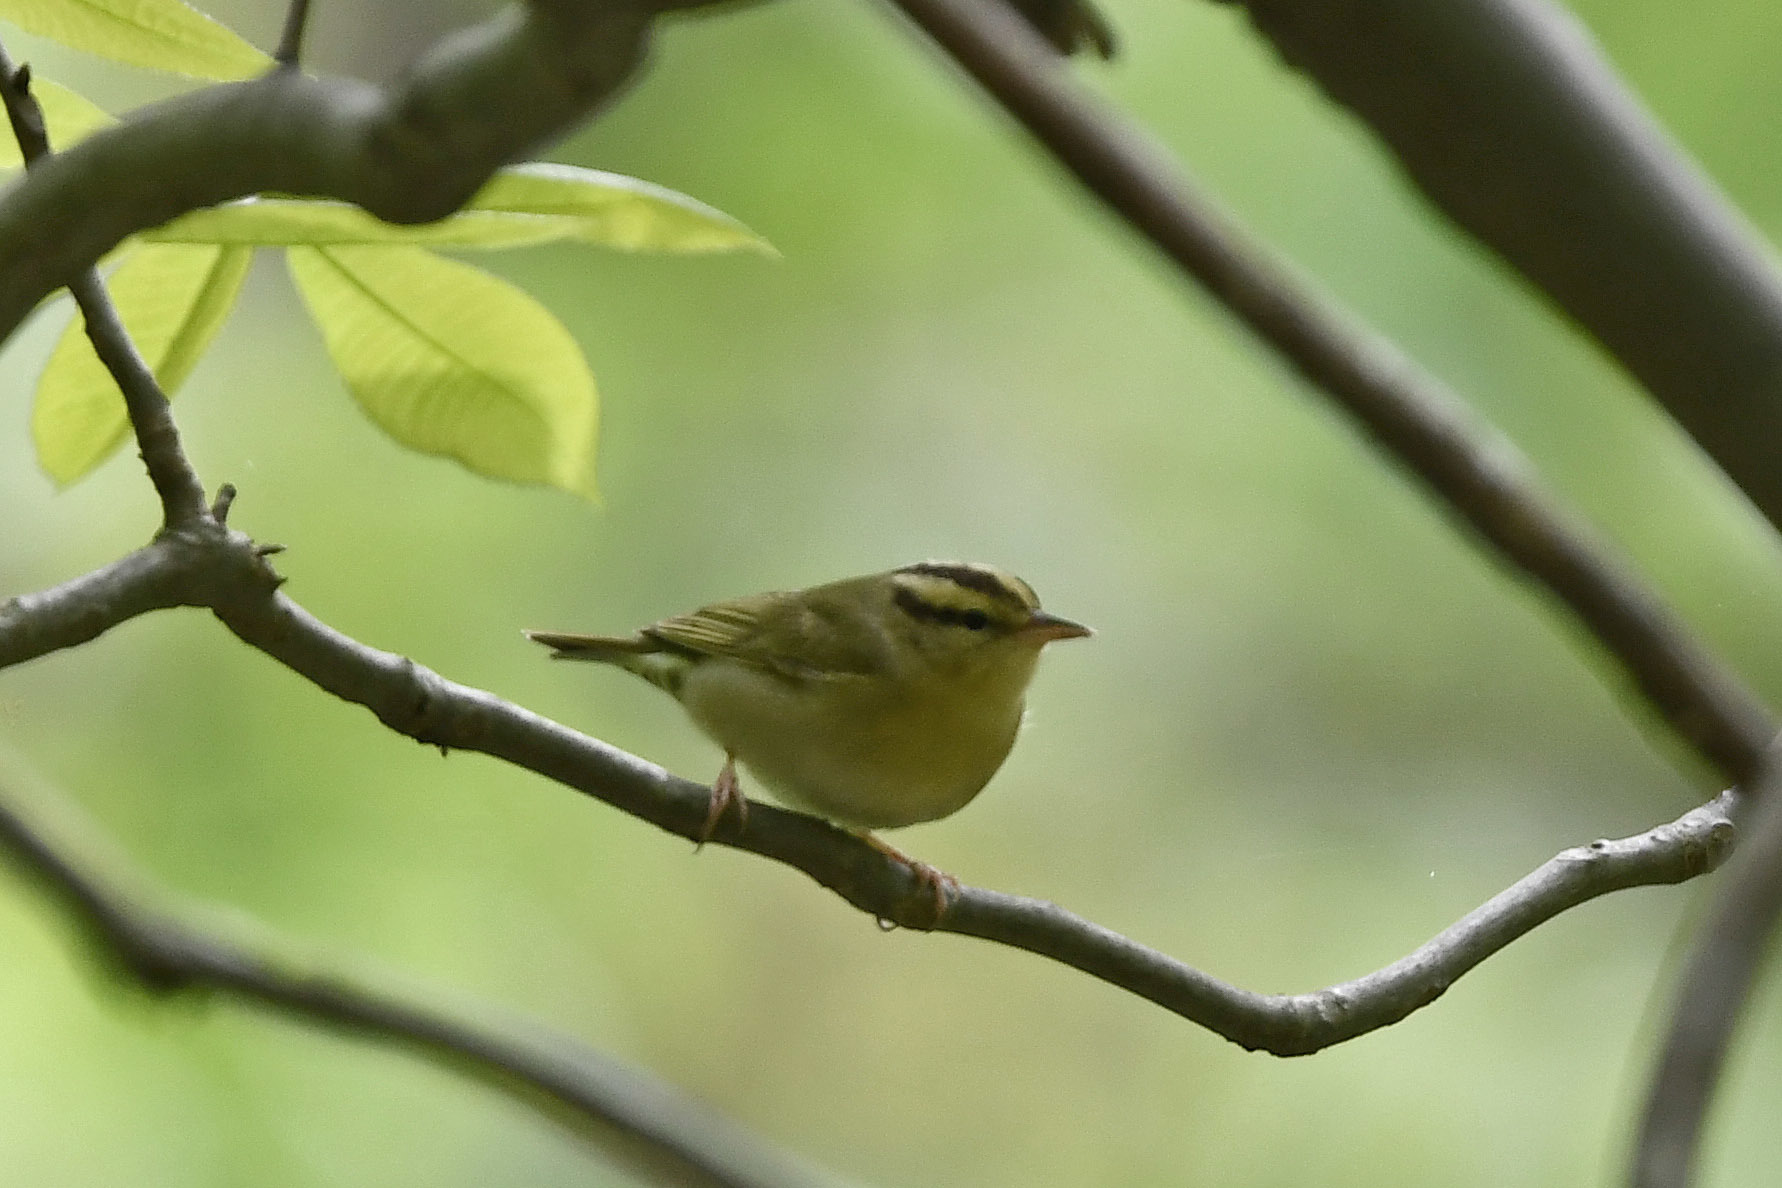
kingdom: Animalia
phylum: Chordata
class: Aves
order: Passeriformes
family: Parulidae
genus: Helmitheros
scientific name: Helmitheros vermivorum
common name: Worm-eating warbler
